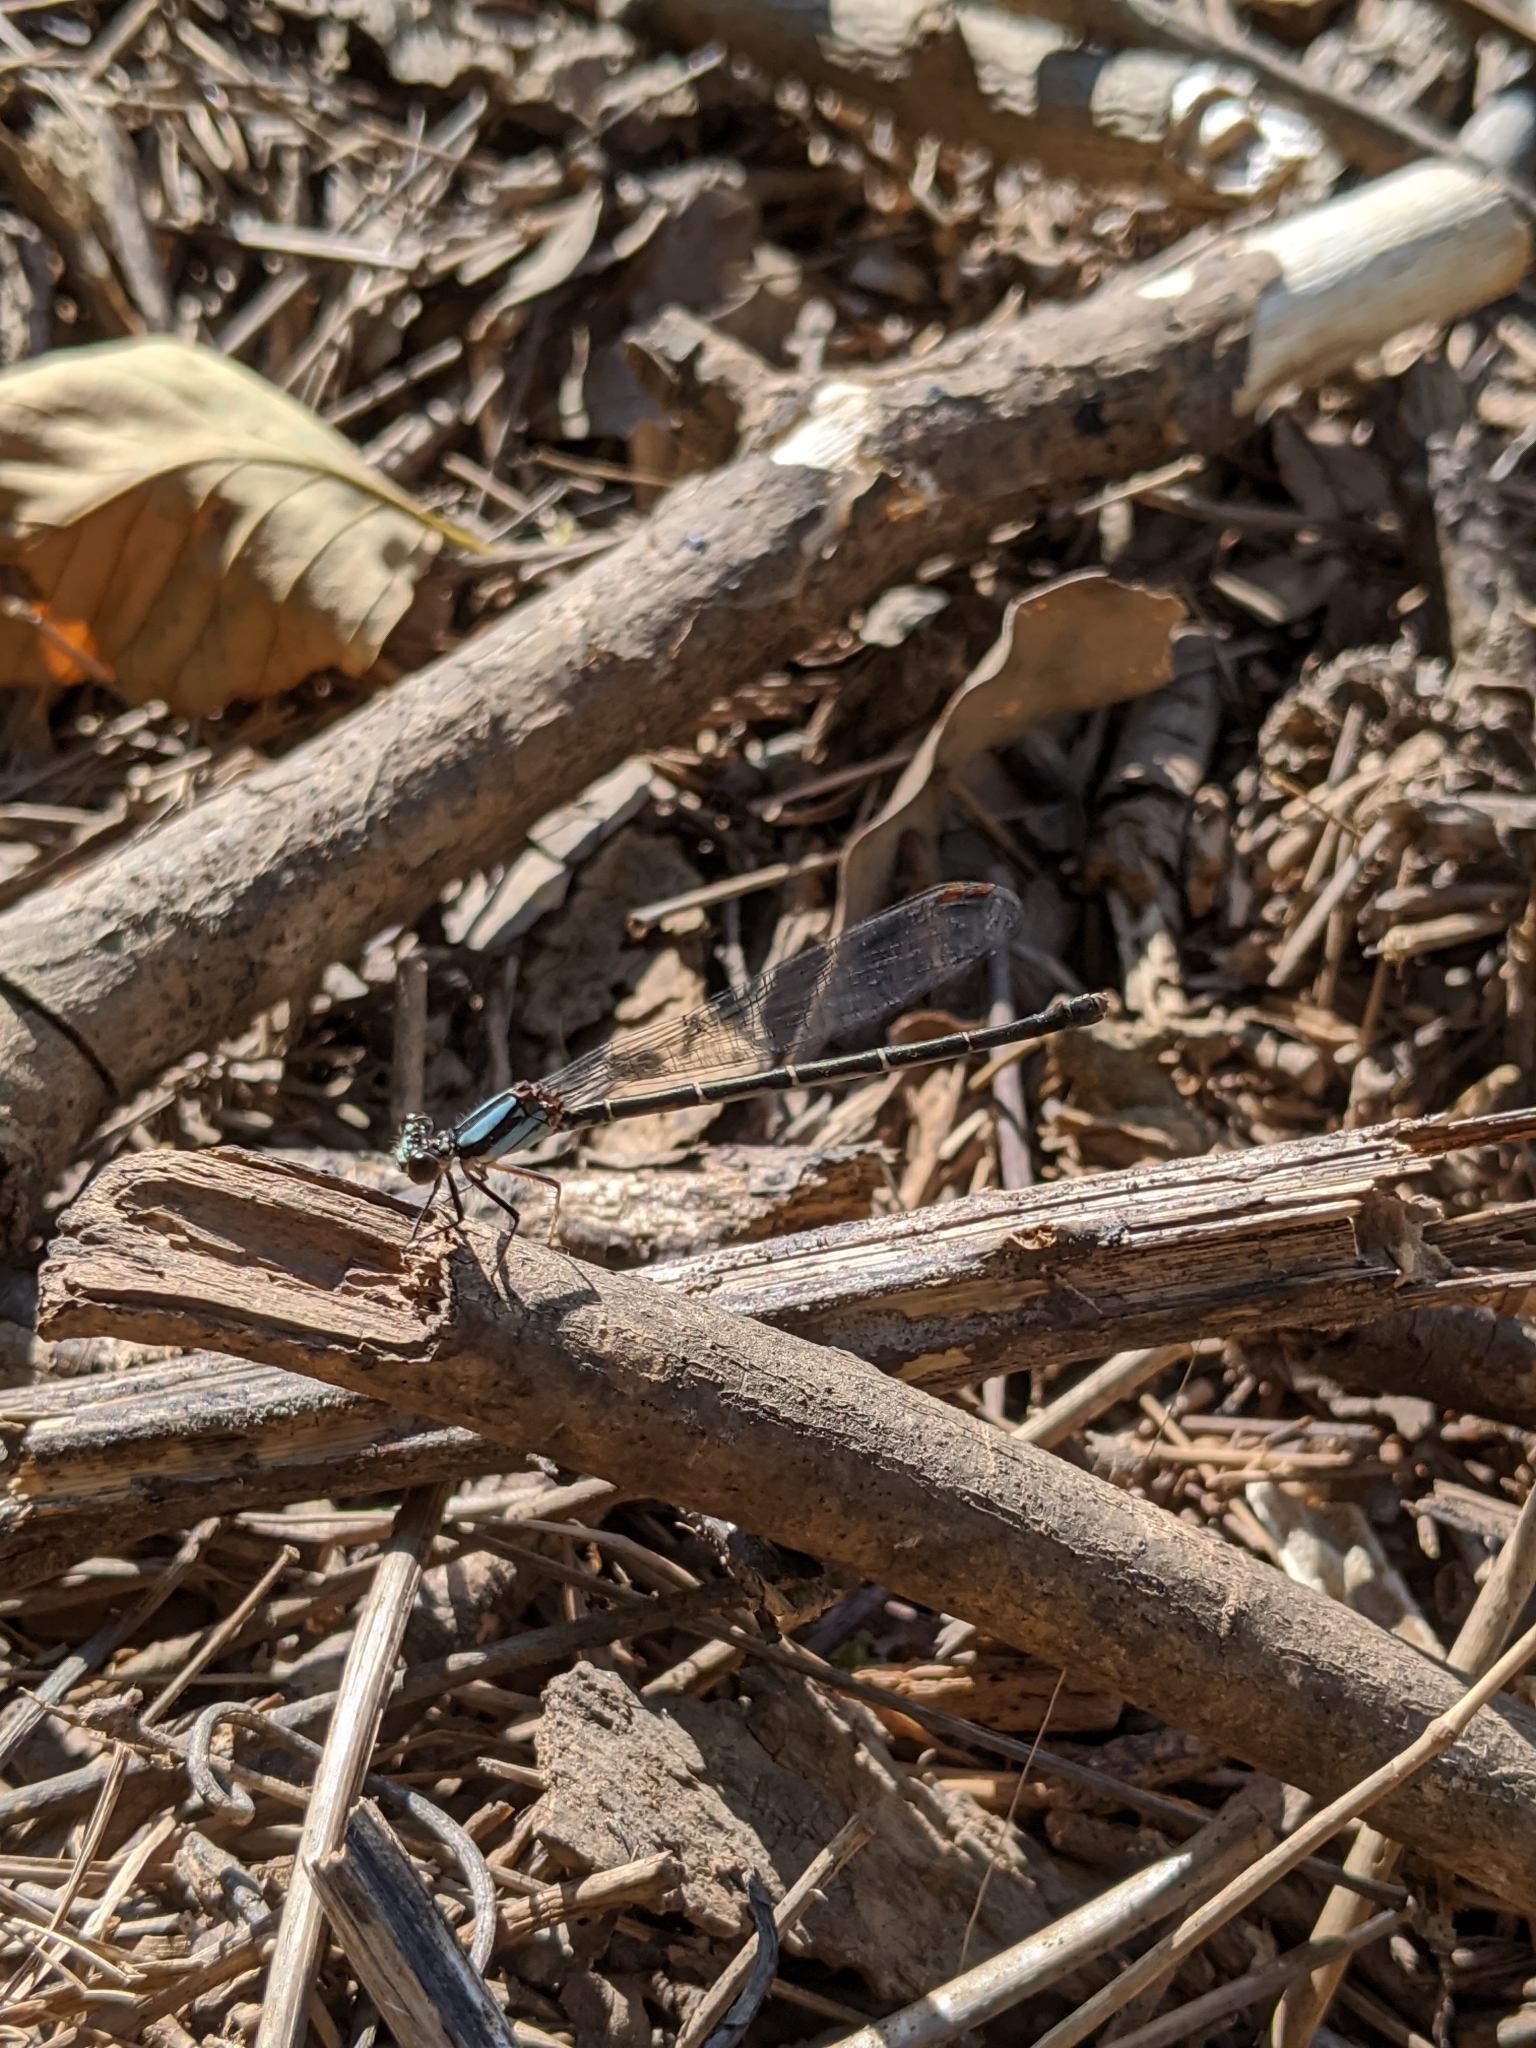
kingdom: Animalia
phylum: Arthropoda
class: Insecta
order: Odonata
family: Coenagrionidae
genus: Argia
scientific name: Argia tibialis
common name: Blue-tipped dancer
